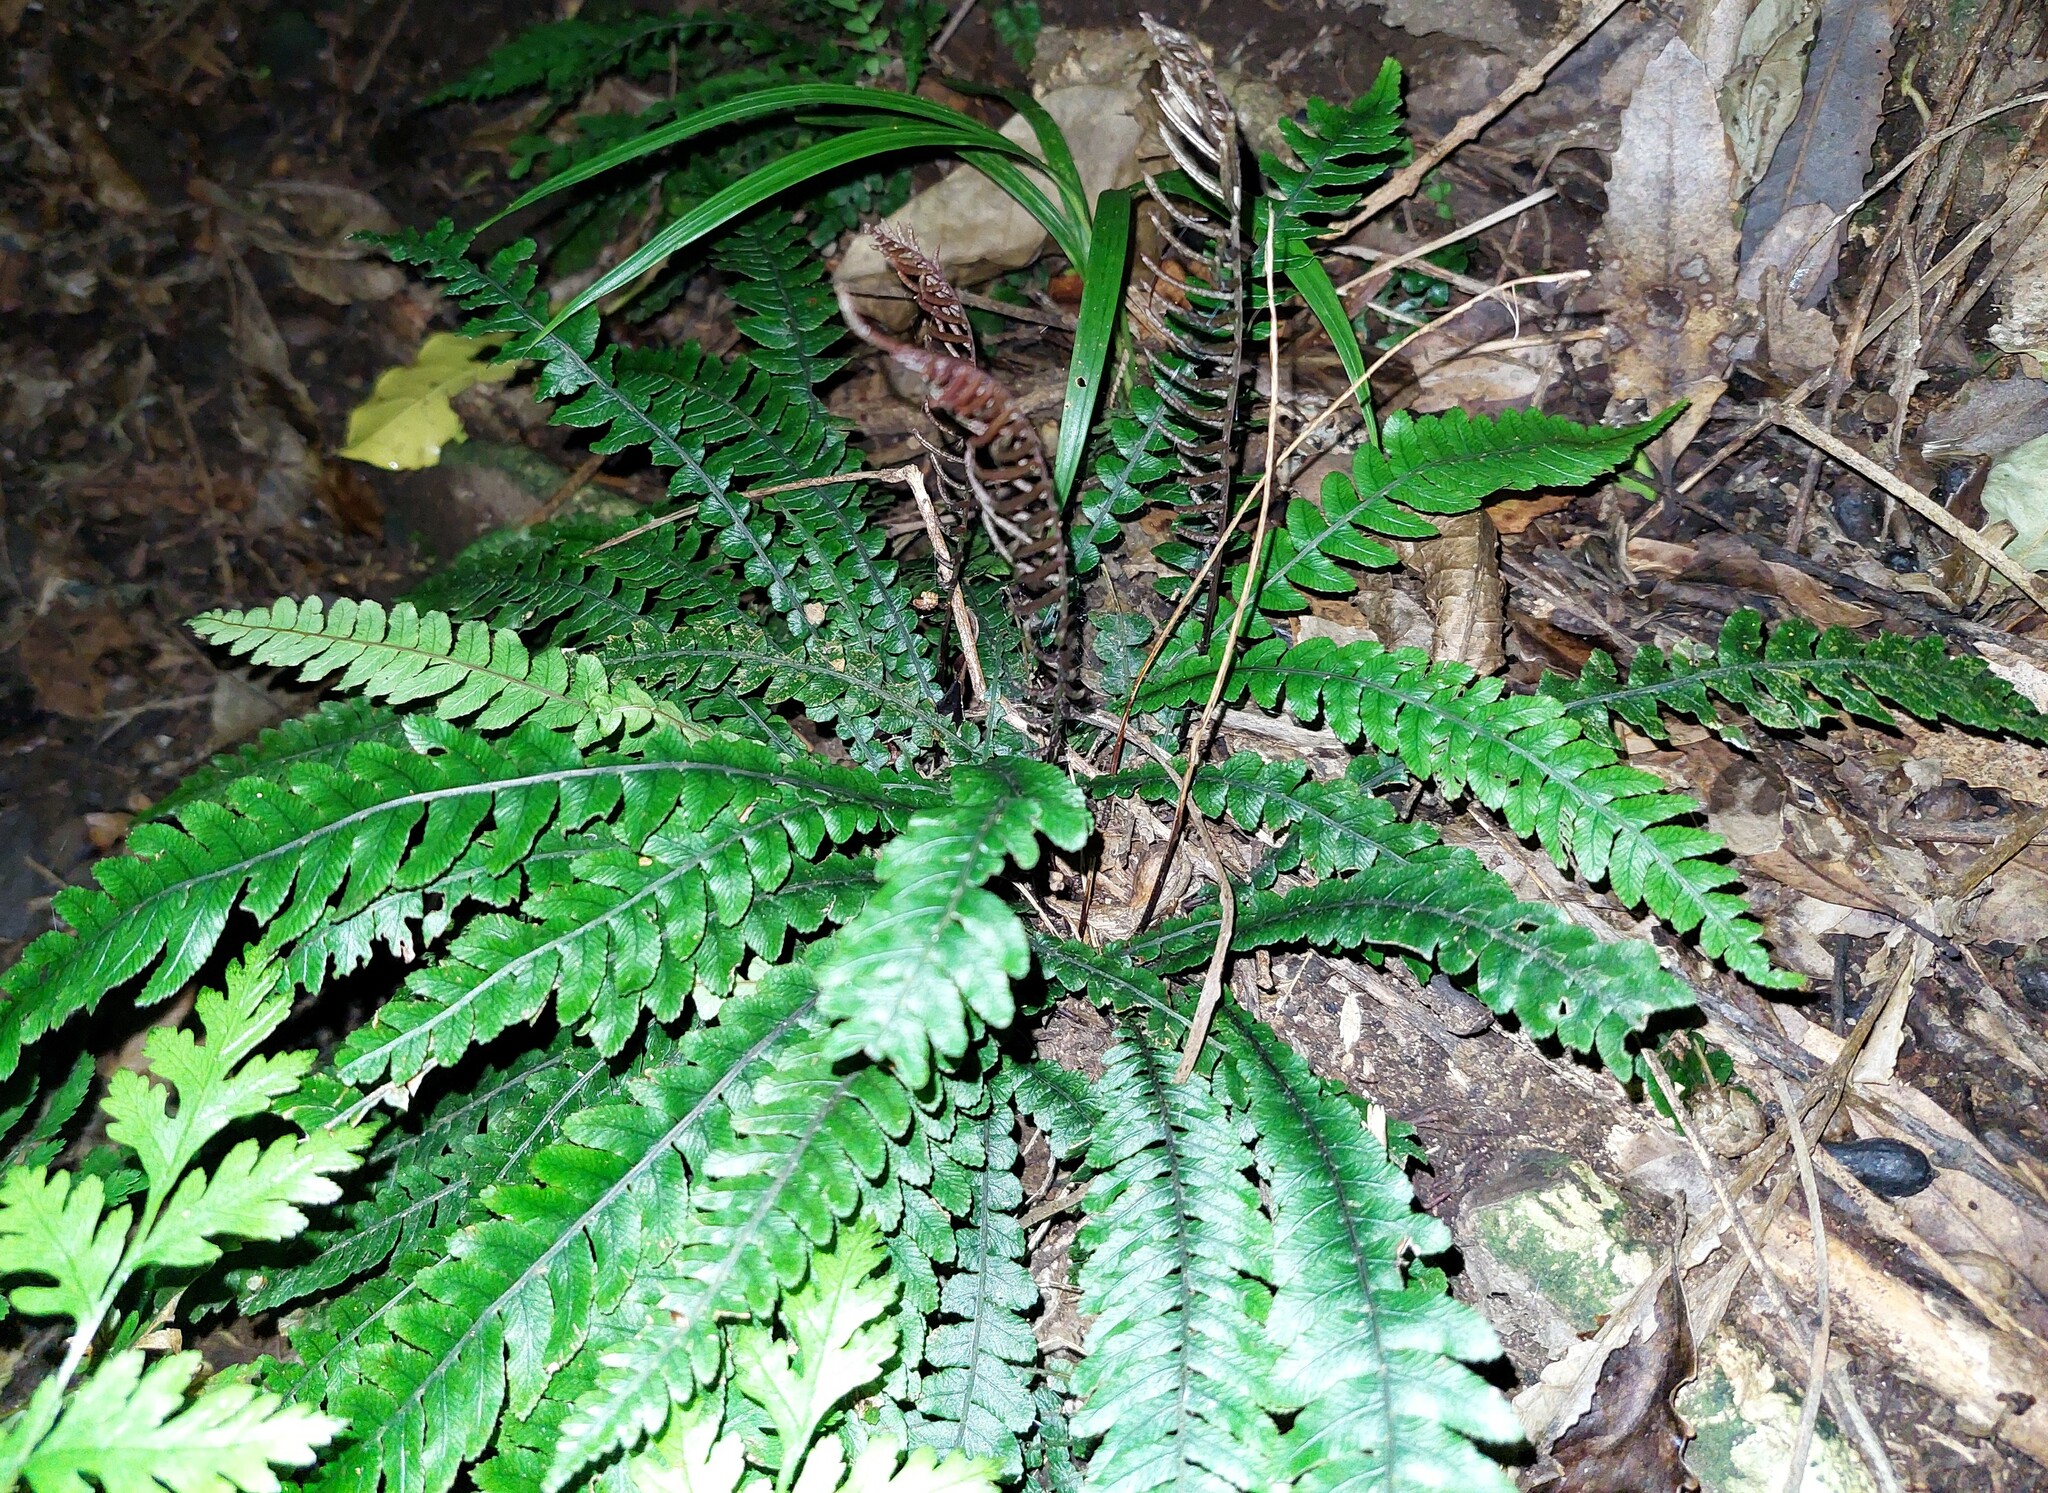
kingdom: Plantae
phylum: Tracheophyta
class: Polypodiopsida
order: Polypodiales
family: Blechnaceae
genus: Austroblechnum
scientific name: Austroblechnum lanceolatum
